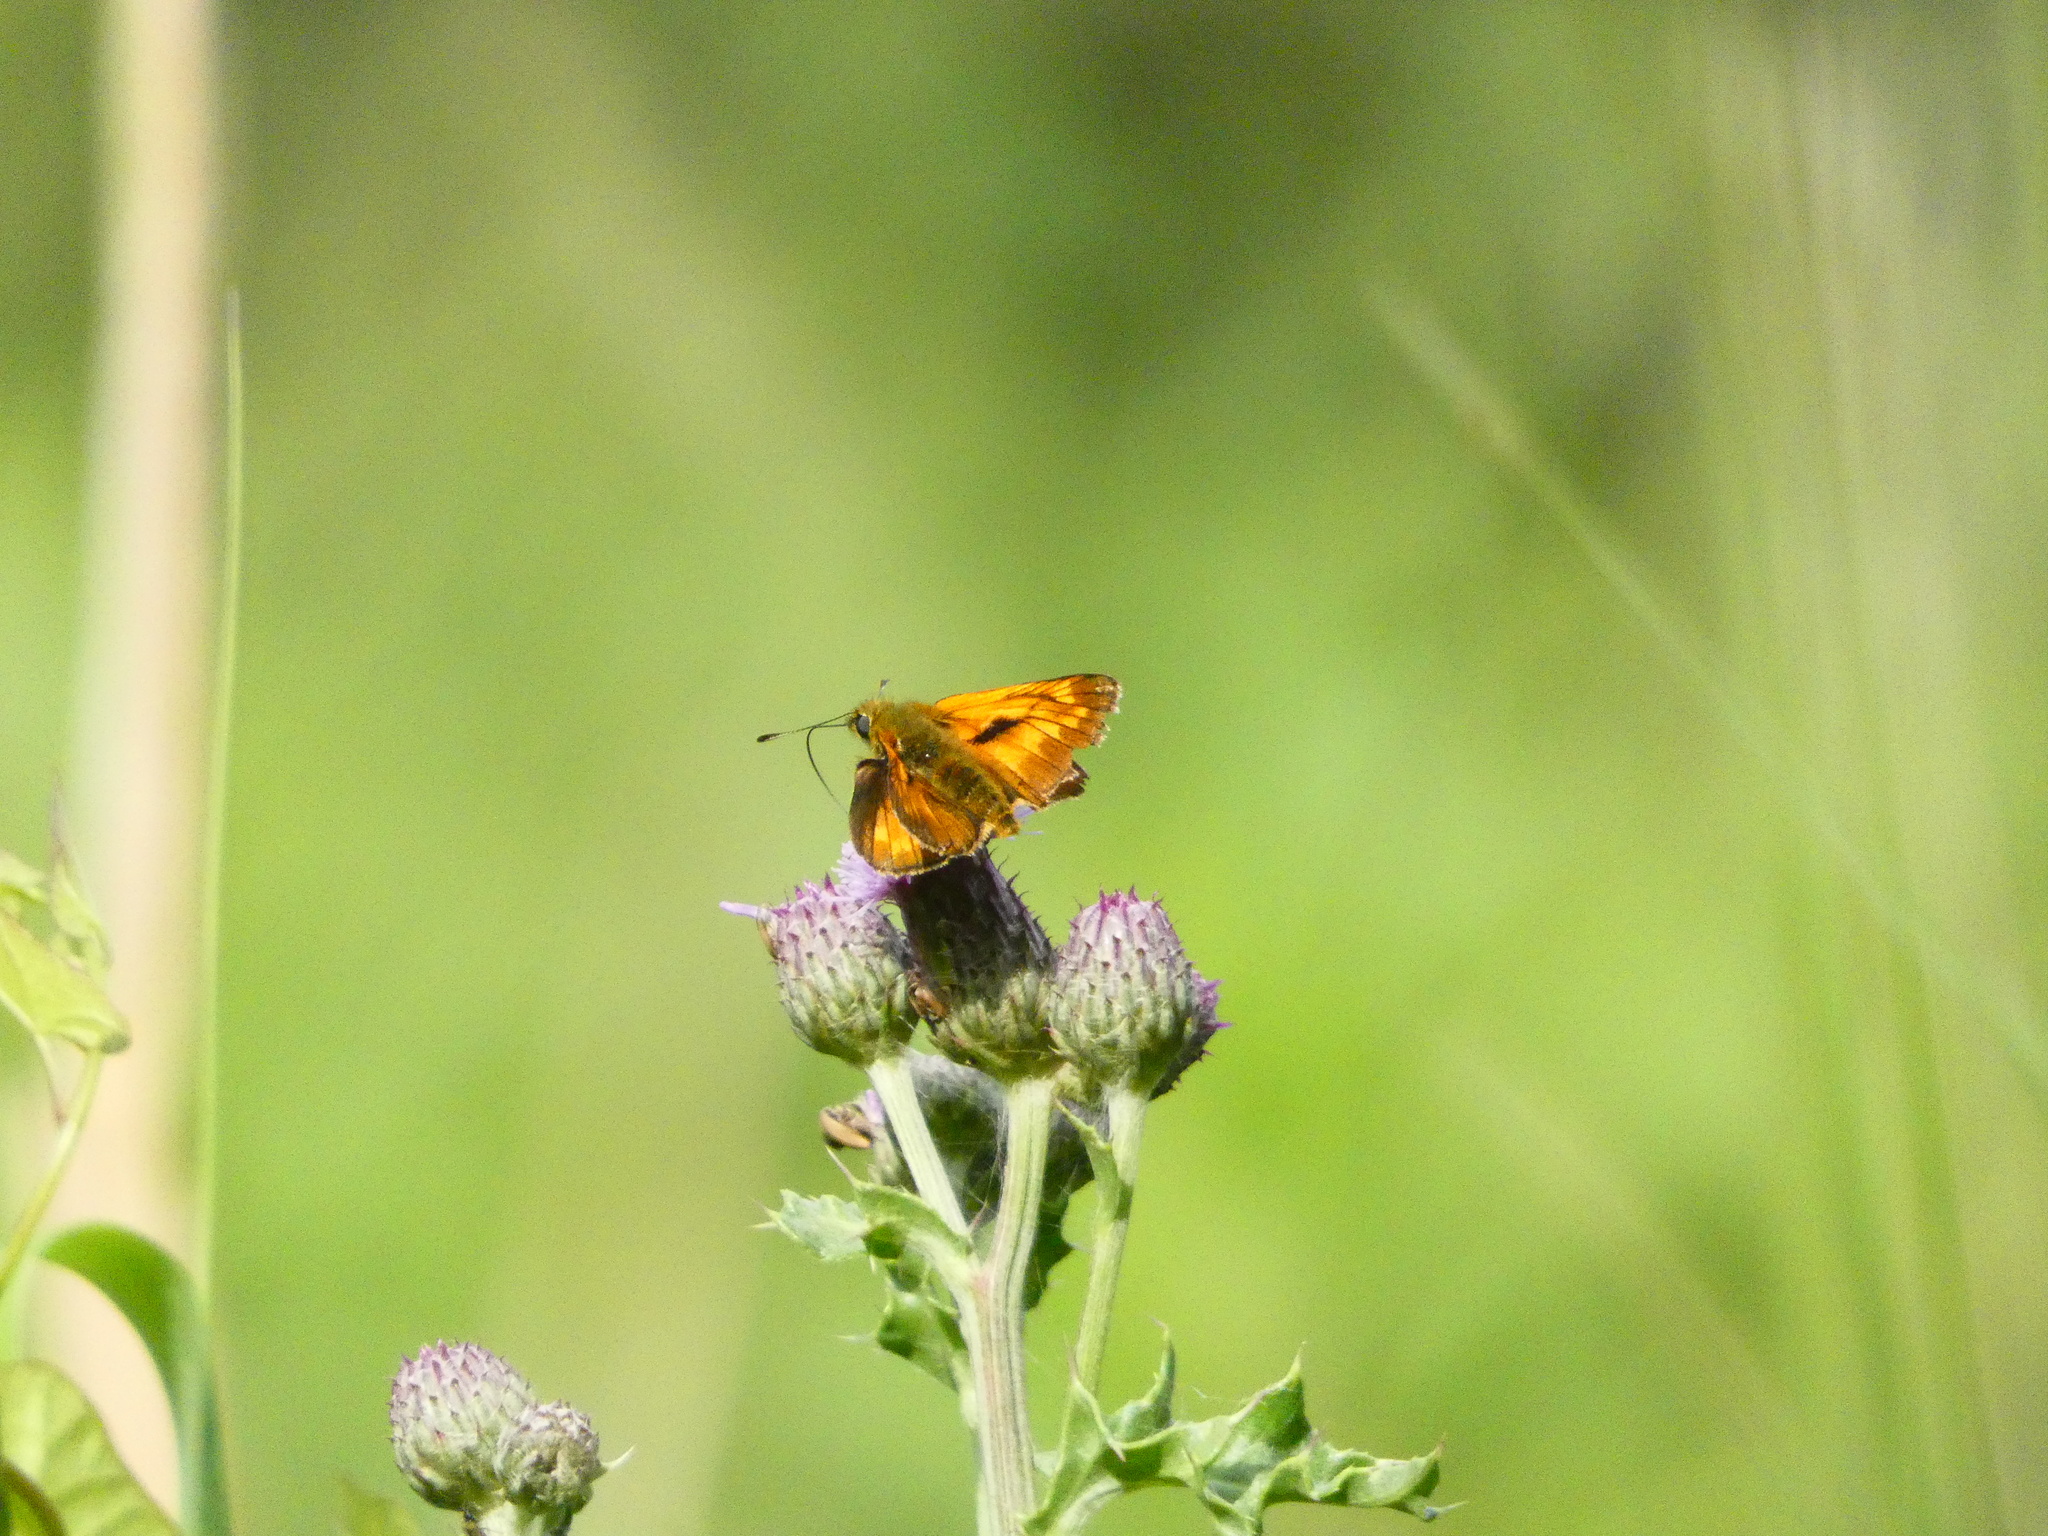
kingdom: Animalia
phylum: Arthropoda
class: Insecta
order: Lepidoptera
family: Hesperiidae
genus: Ochlodes
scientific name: Ochlodes venata
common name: Large skipper
